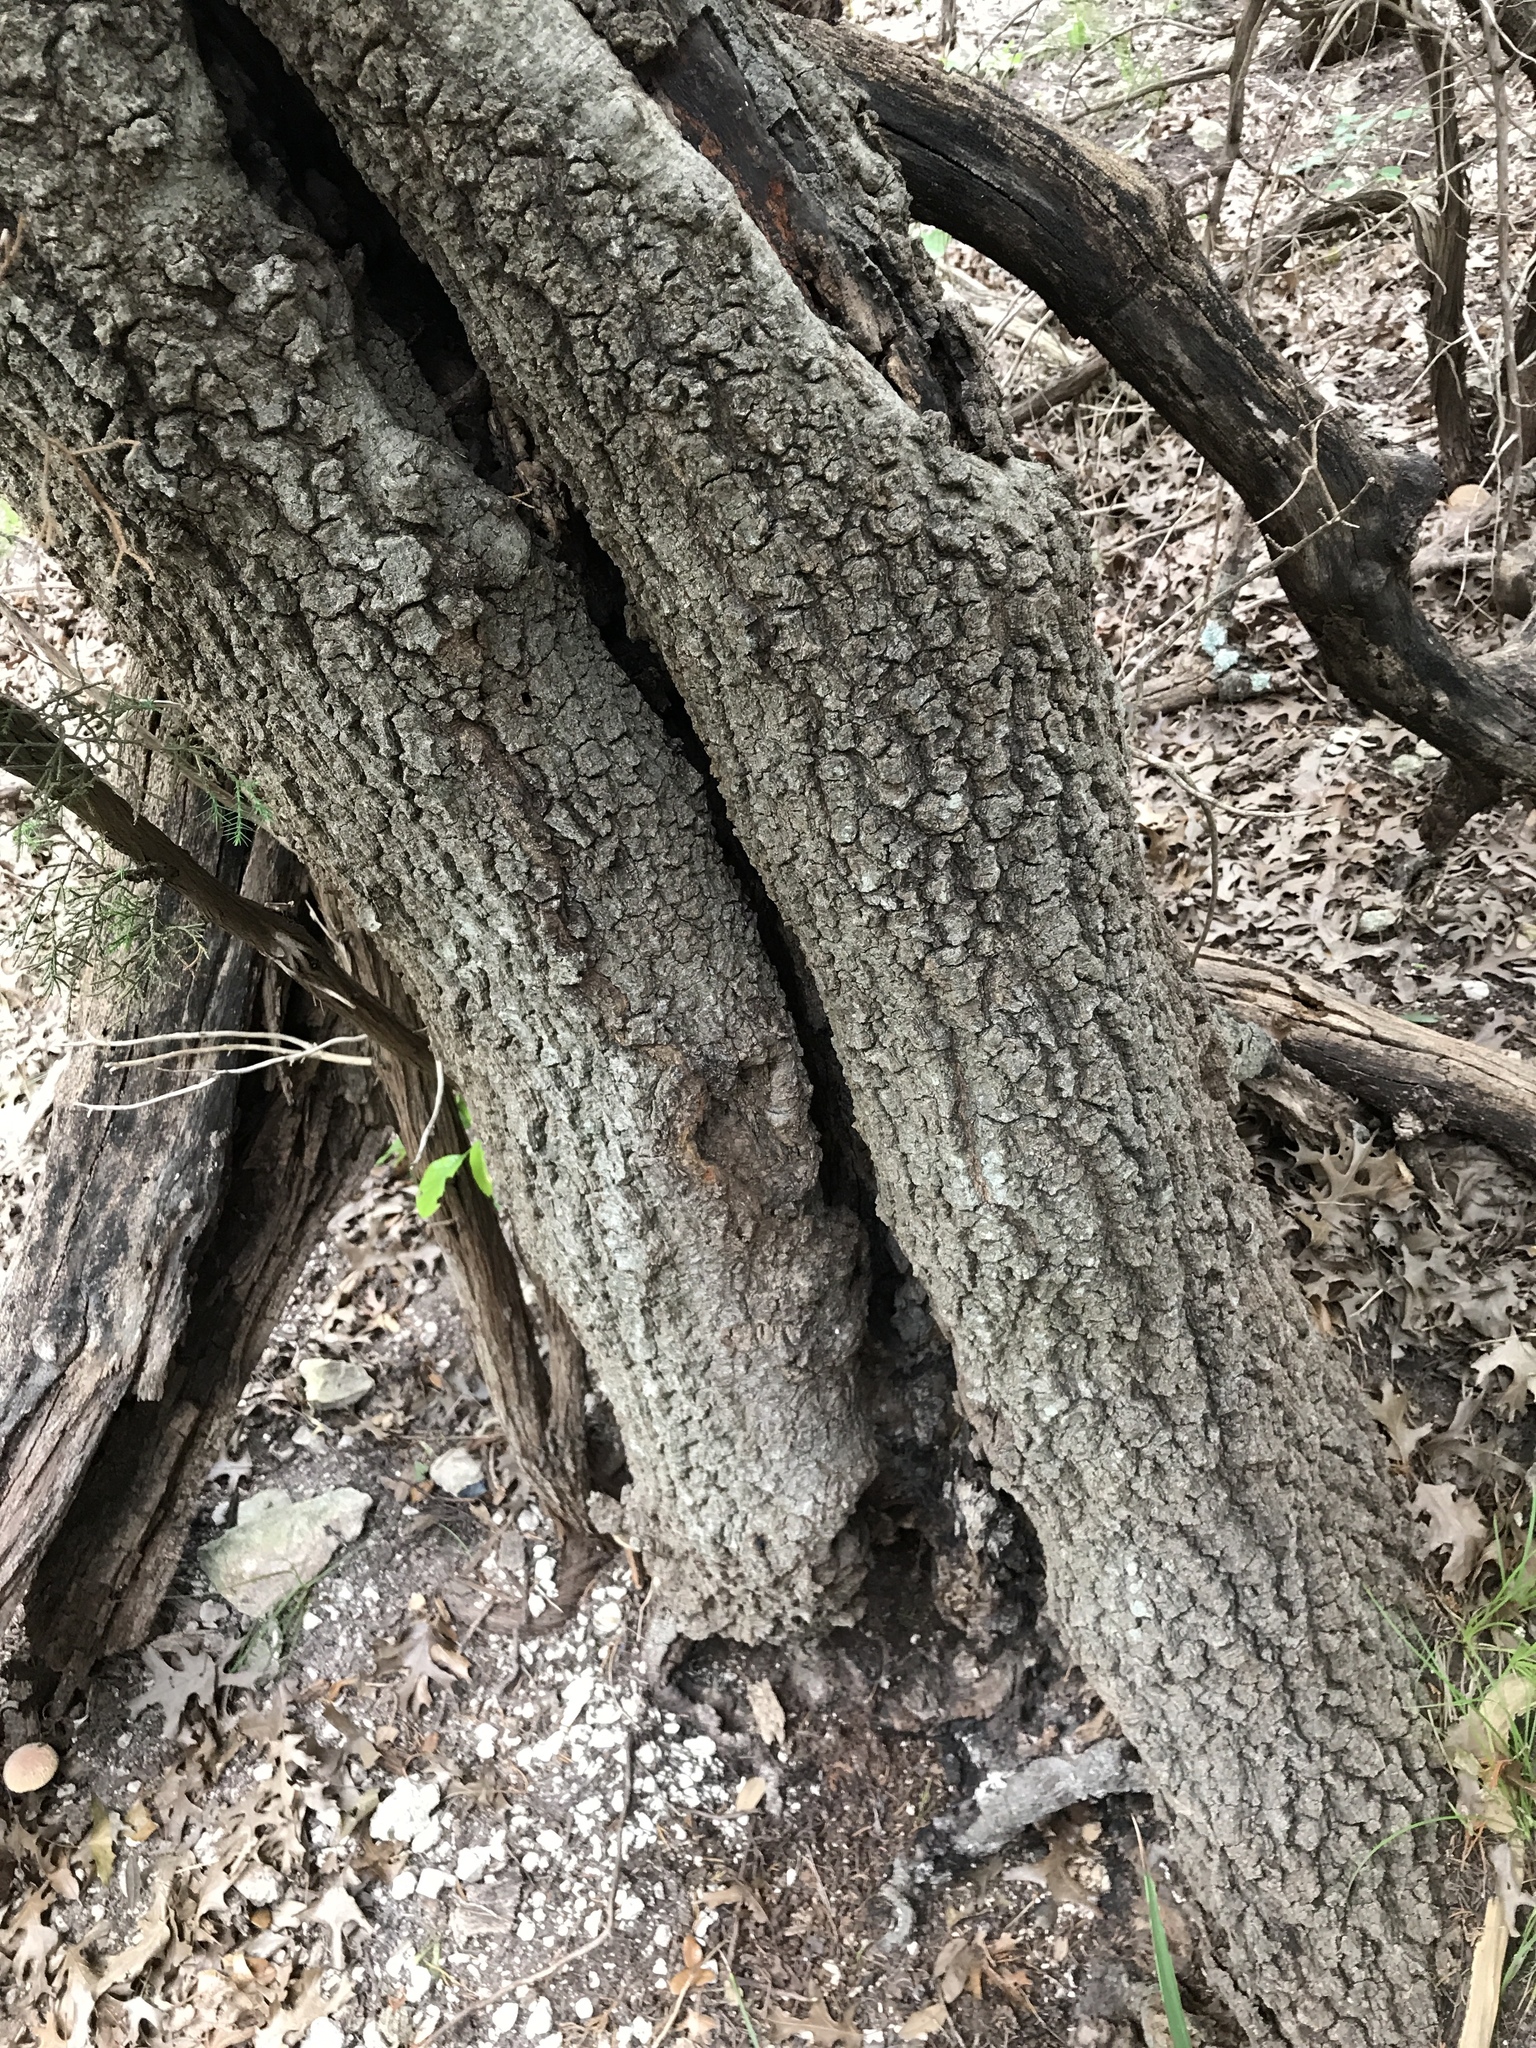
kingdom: Plantae
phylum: Tracheophyta
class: Magnoliopsida
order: Fagales
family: Fagaceae
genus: Quercus
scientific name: Quercus buckleyi
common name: Buckley oak
